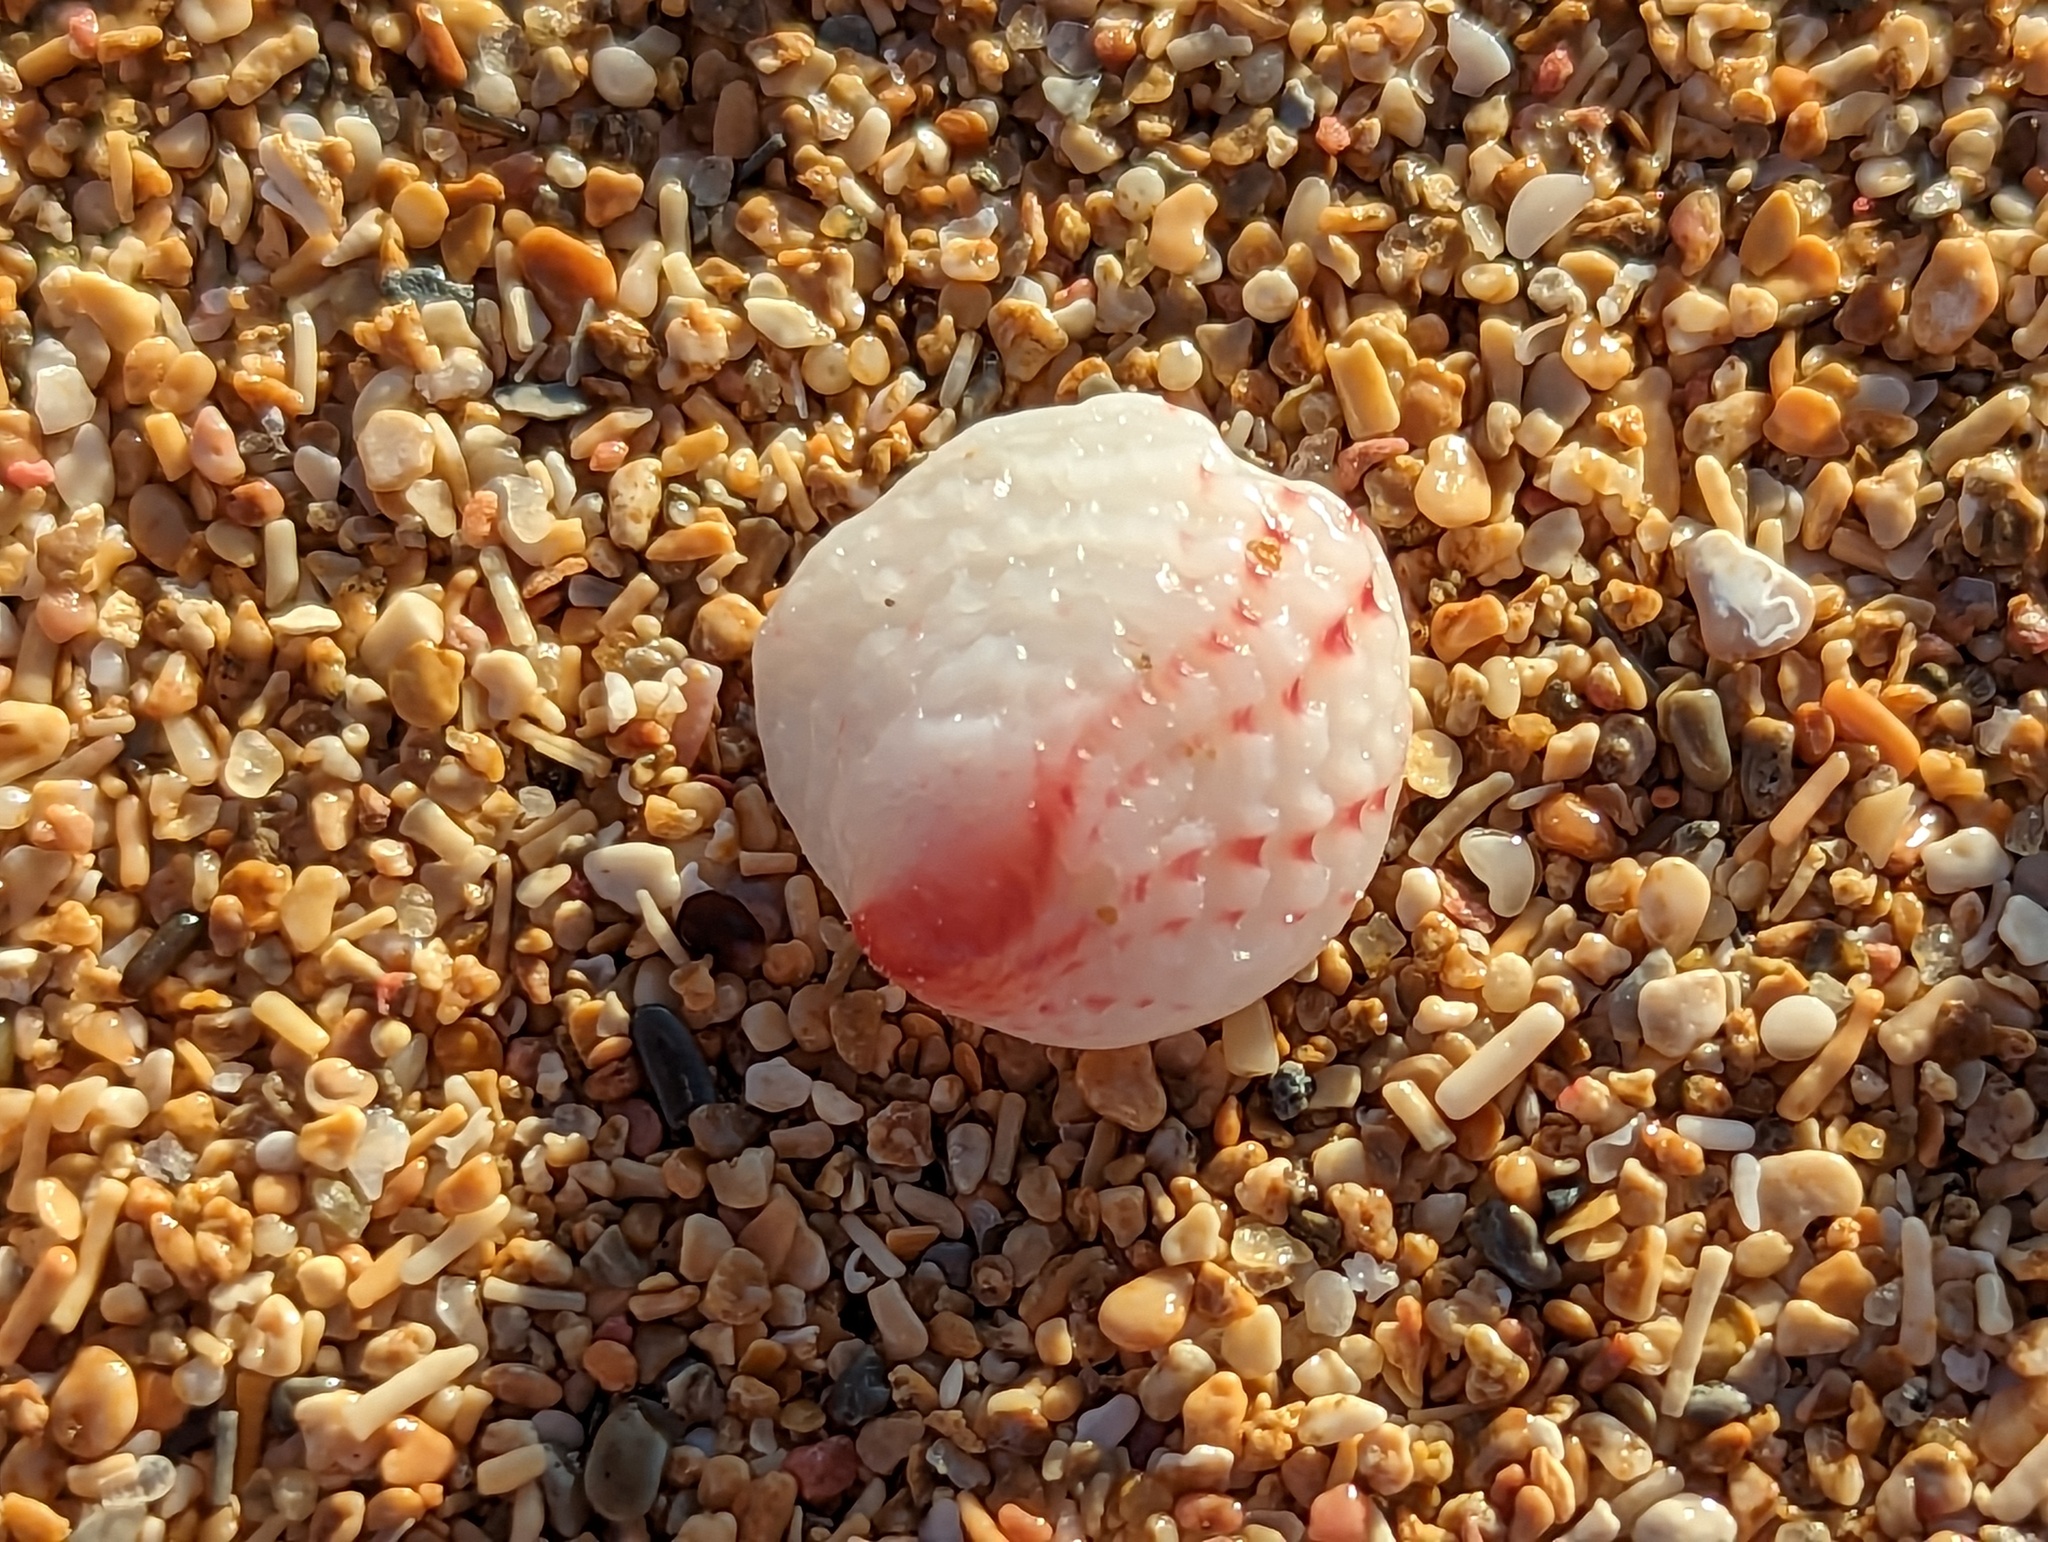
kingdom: Animalia
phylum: Mollusca
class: Bivalvia
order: Venerida
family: Chamidae
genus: Chama
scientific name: Chama florida
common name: Blushed jewelbox
